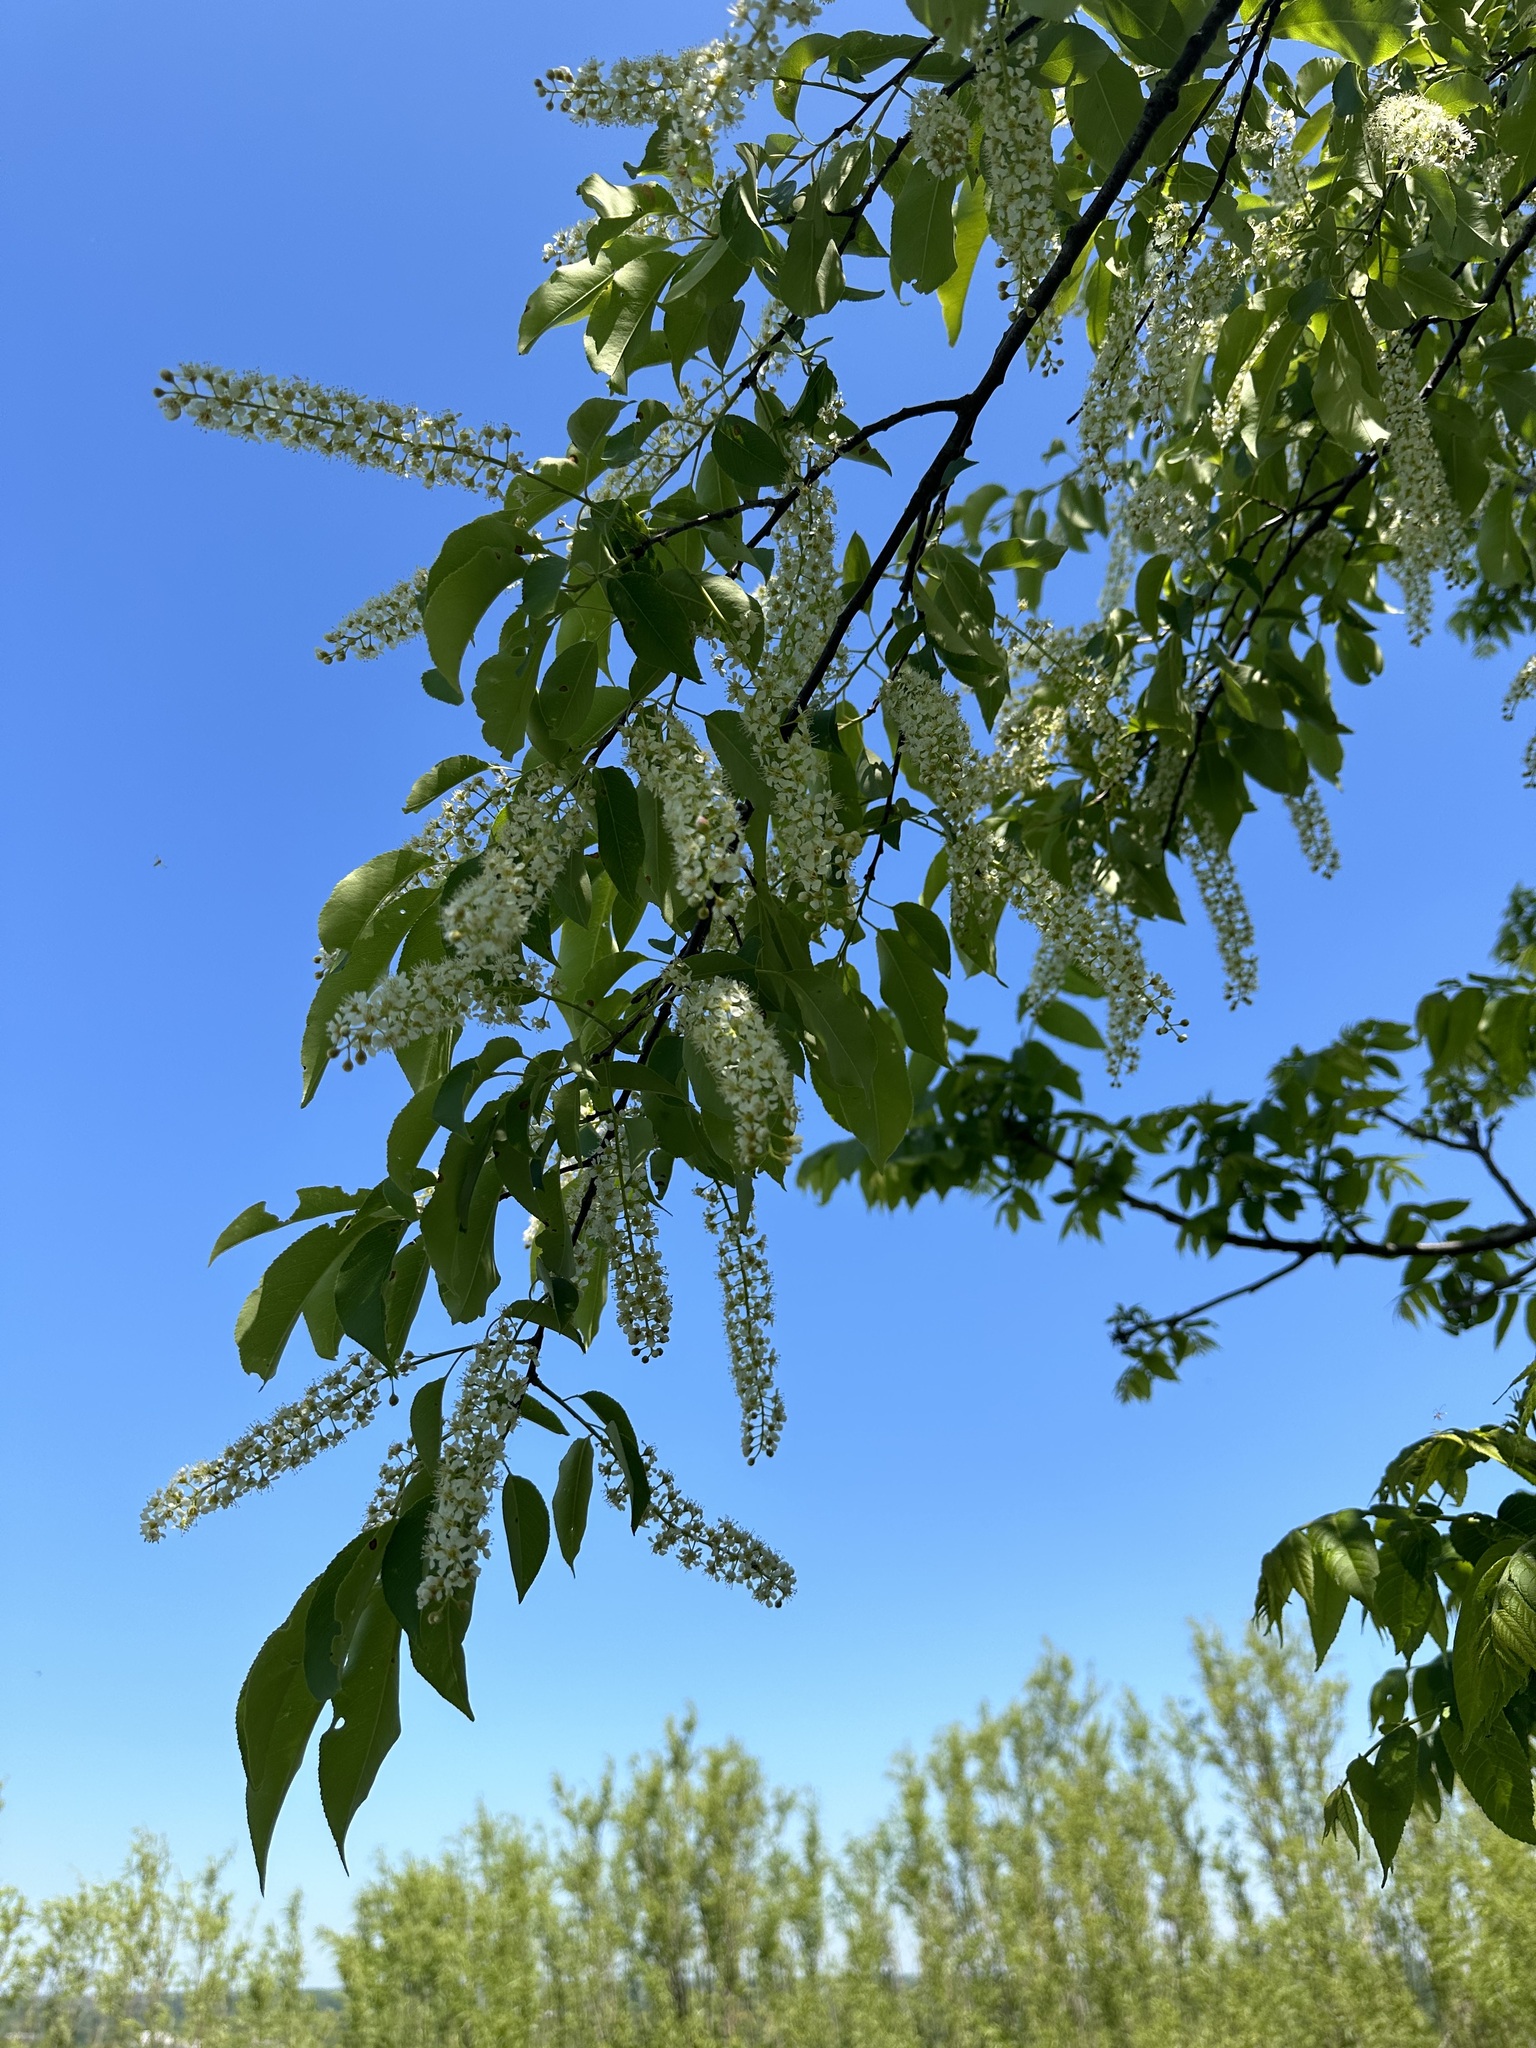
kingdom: Plantae
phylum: Tracheophyta
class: Magnoliopsida
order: Rosales
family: Rosaceae
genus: Prunus
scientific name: Prunus serotina
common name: Black cherry
